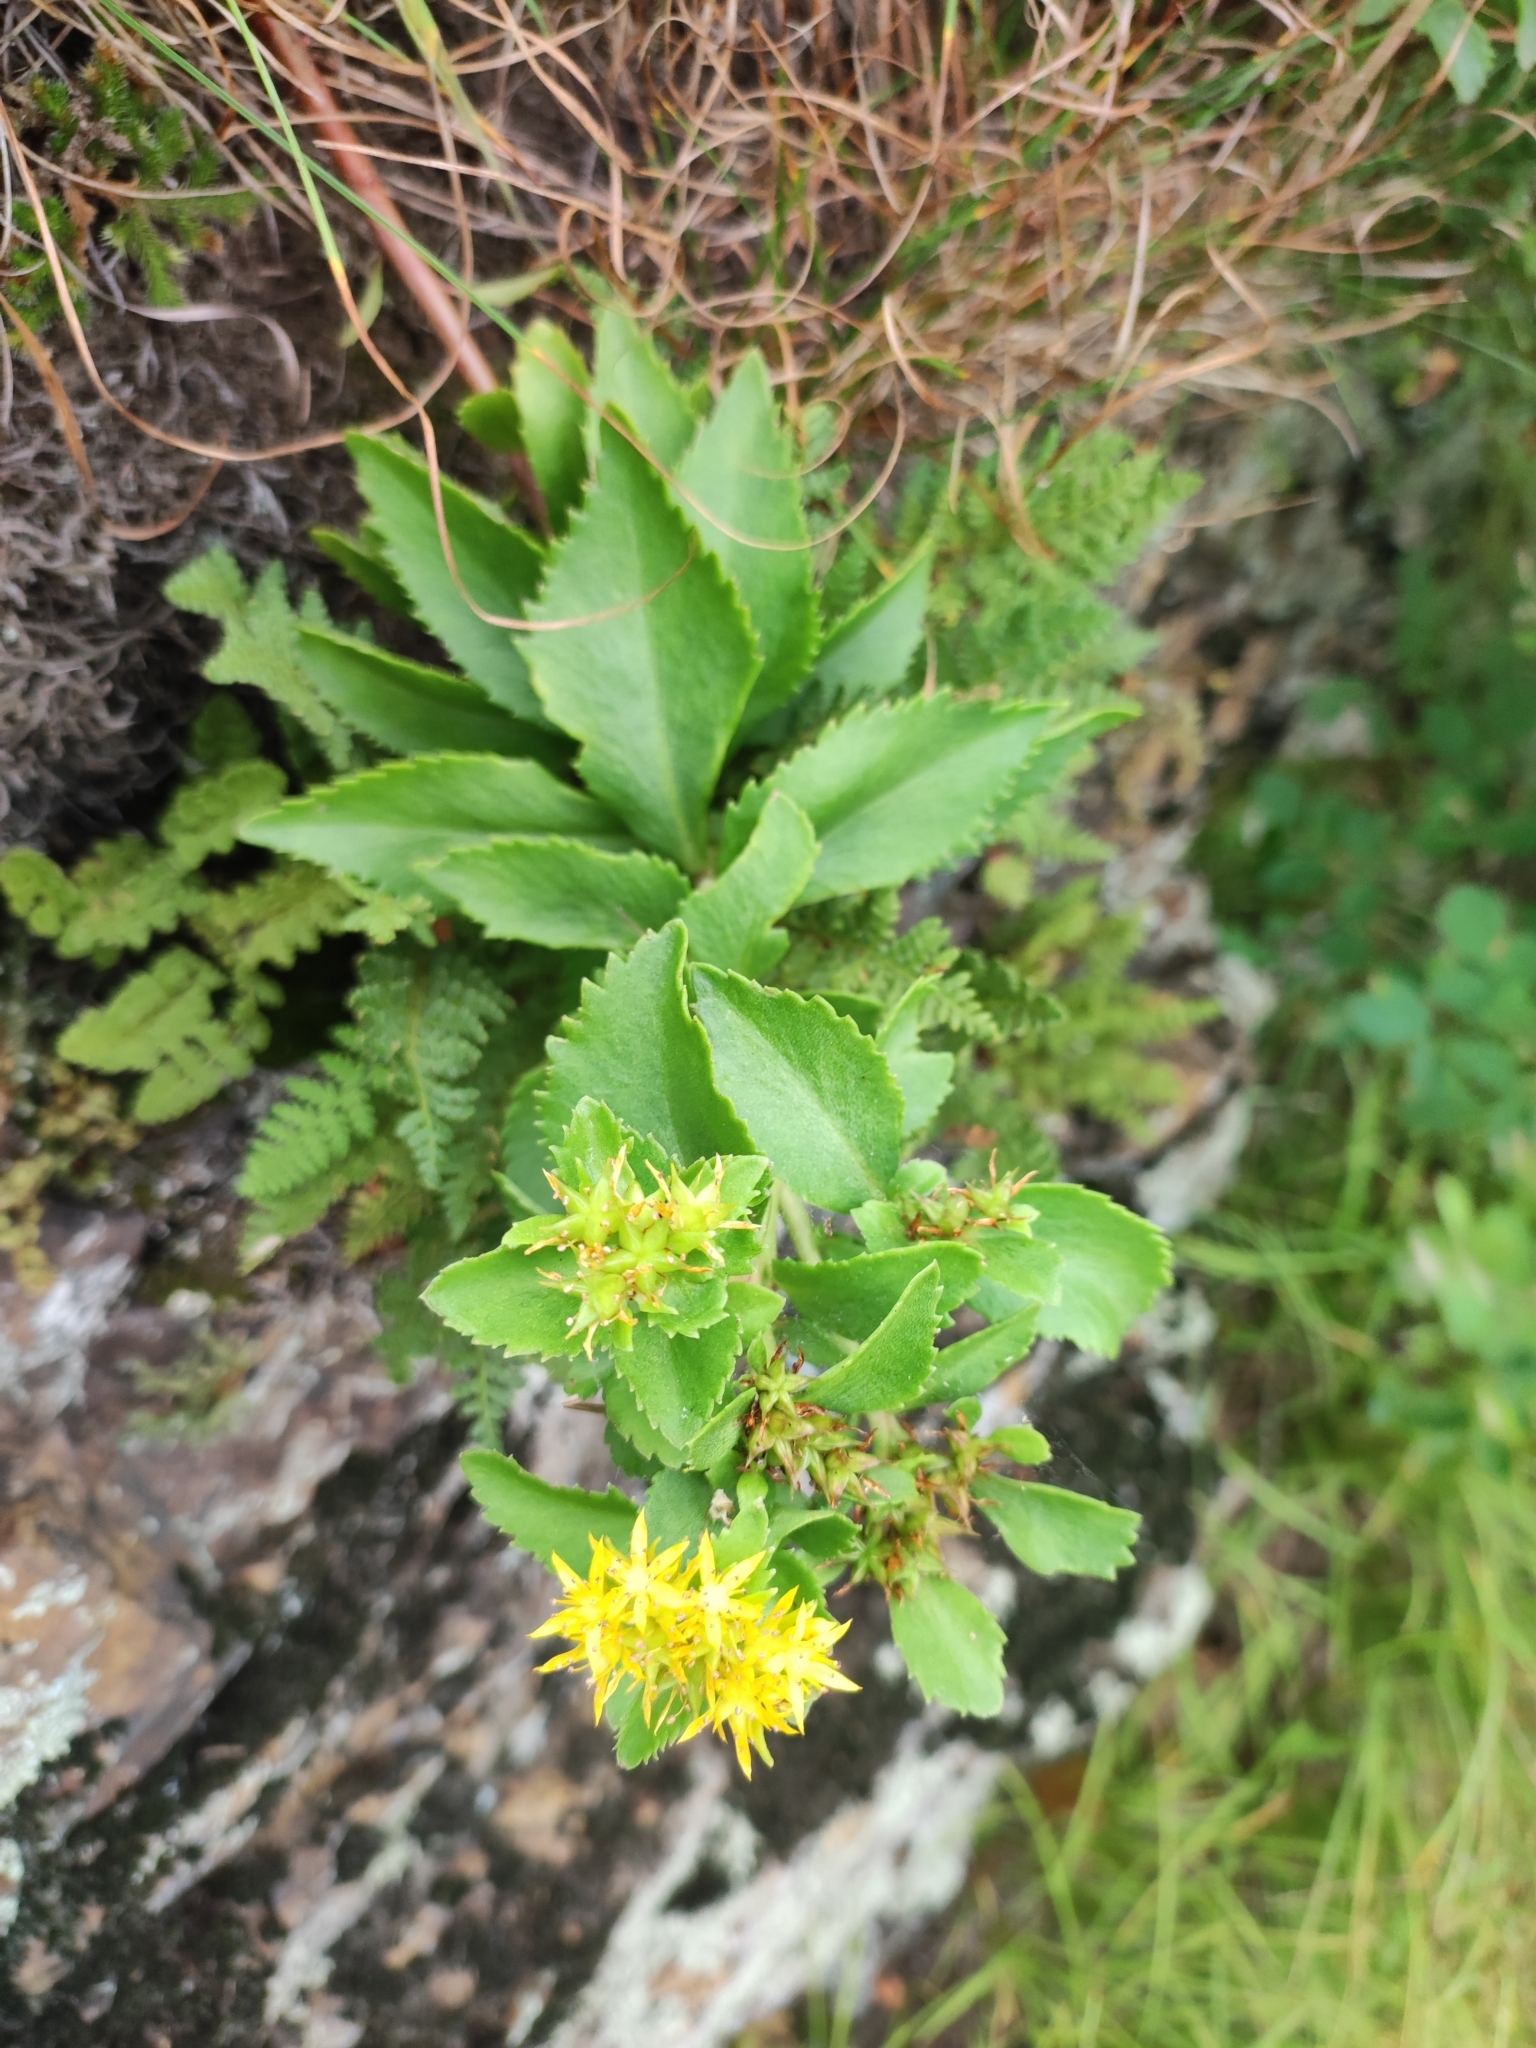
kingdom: Plantae
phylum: Tracheophyta
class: Magnoliopsida
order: Saxifragales
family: Crassulaceae
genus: Phedimus
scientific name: Phedimus aizoon
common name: Orpin aizoon
